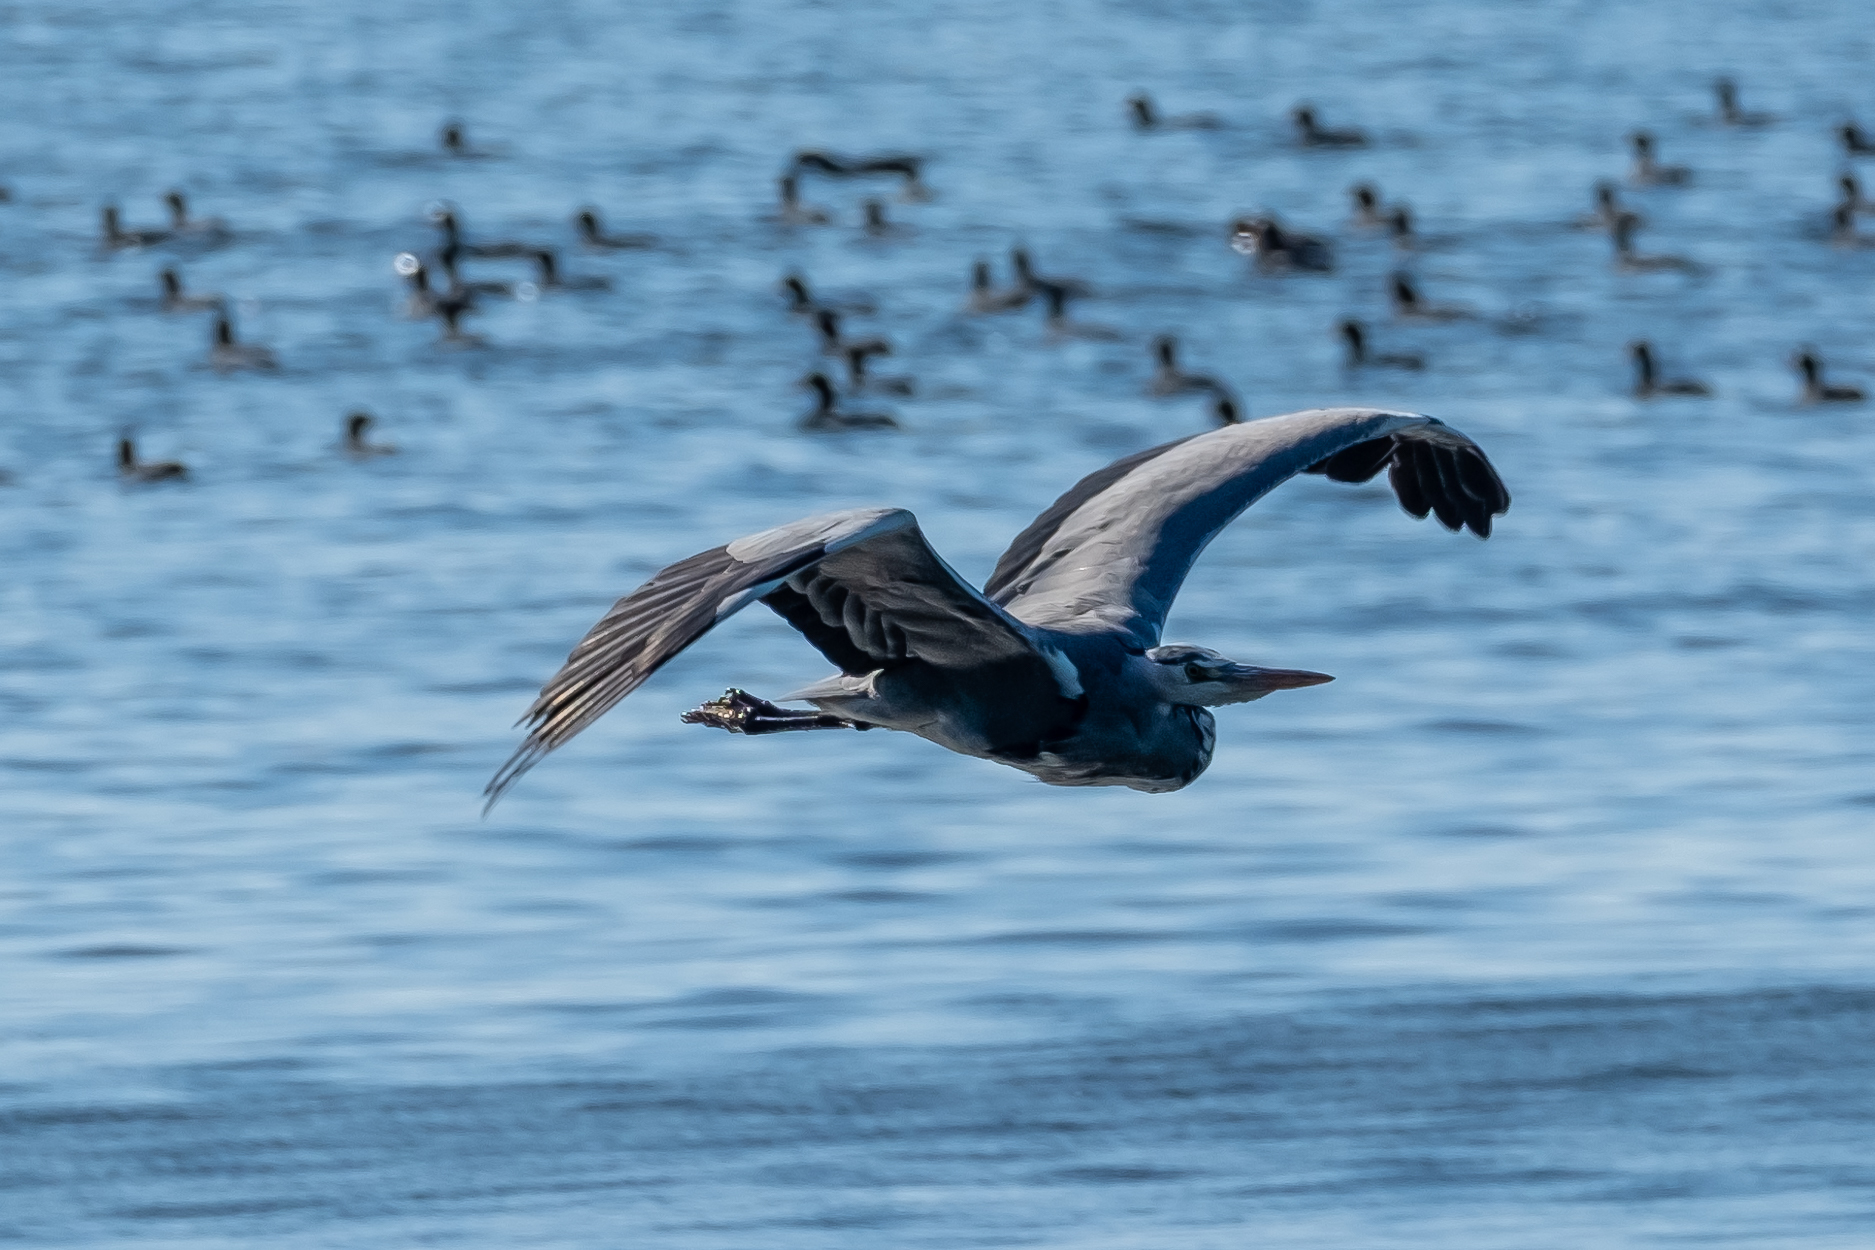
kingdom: Animalia
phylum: Chordata
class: Aves
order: Pelecaniformes
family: Ardeidae
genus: Ardea
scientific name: Ardea cinerea
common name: Grey heron
